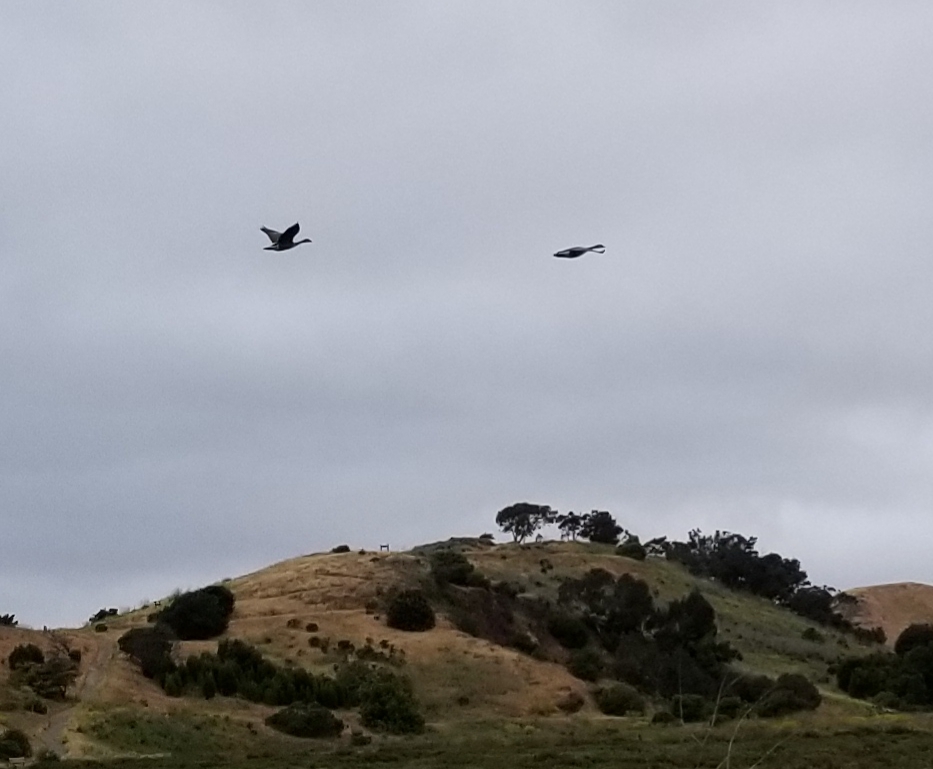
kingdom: Animalia
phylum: Chordata
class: Aves
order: Anseriformes
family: Anatidae
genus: Branta
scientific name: Branta canadensis
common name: Canada goose
